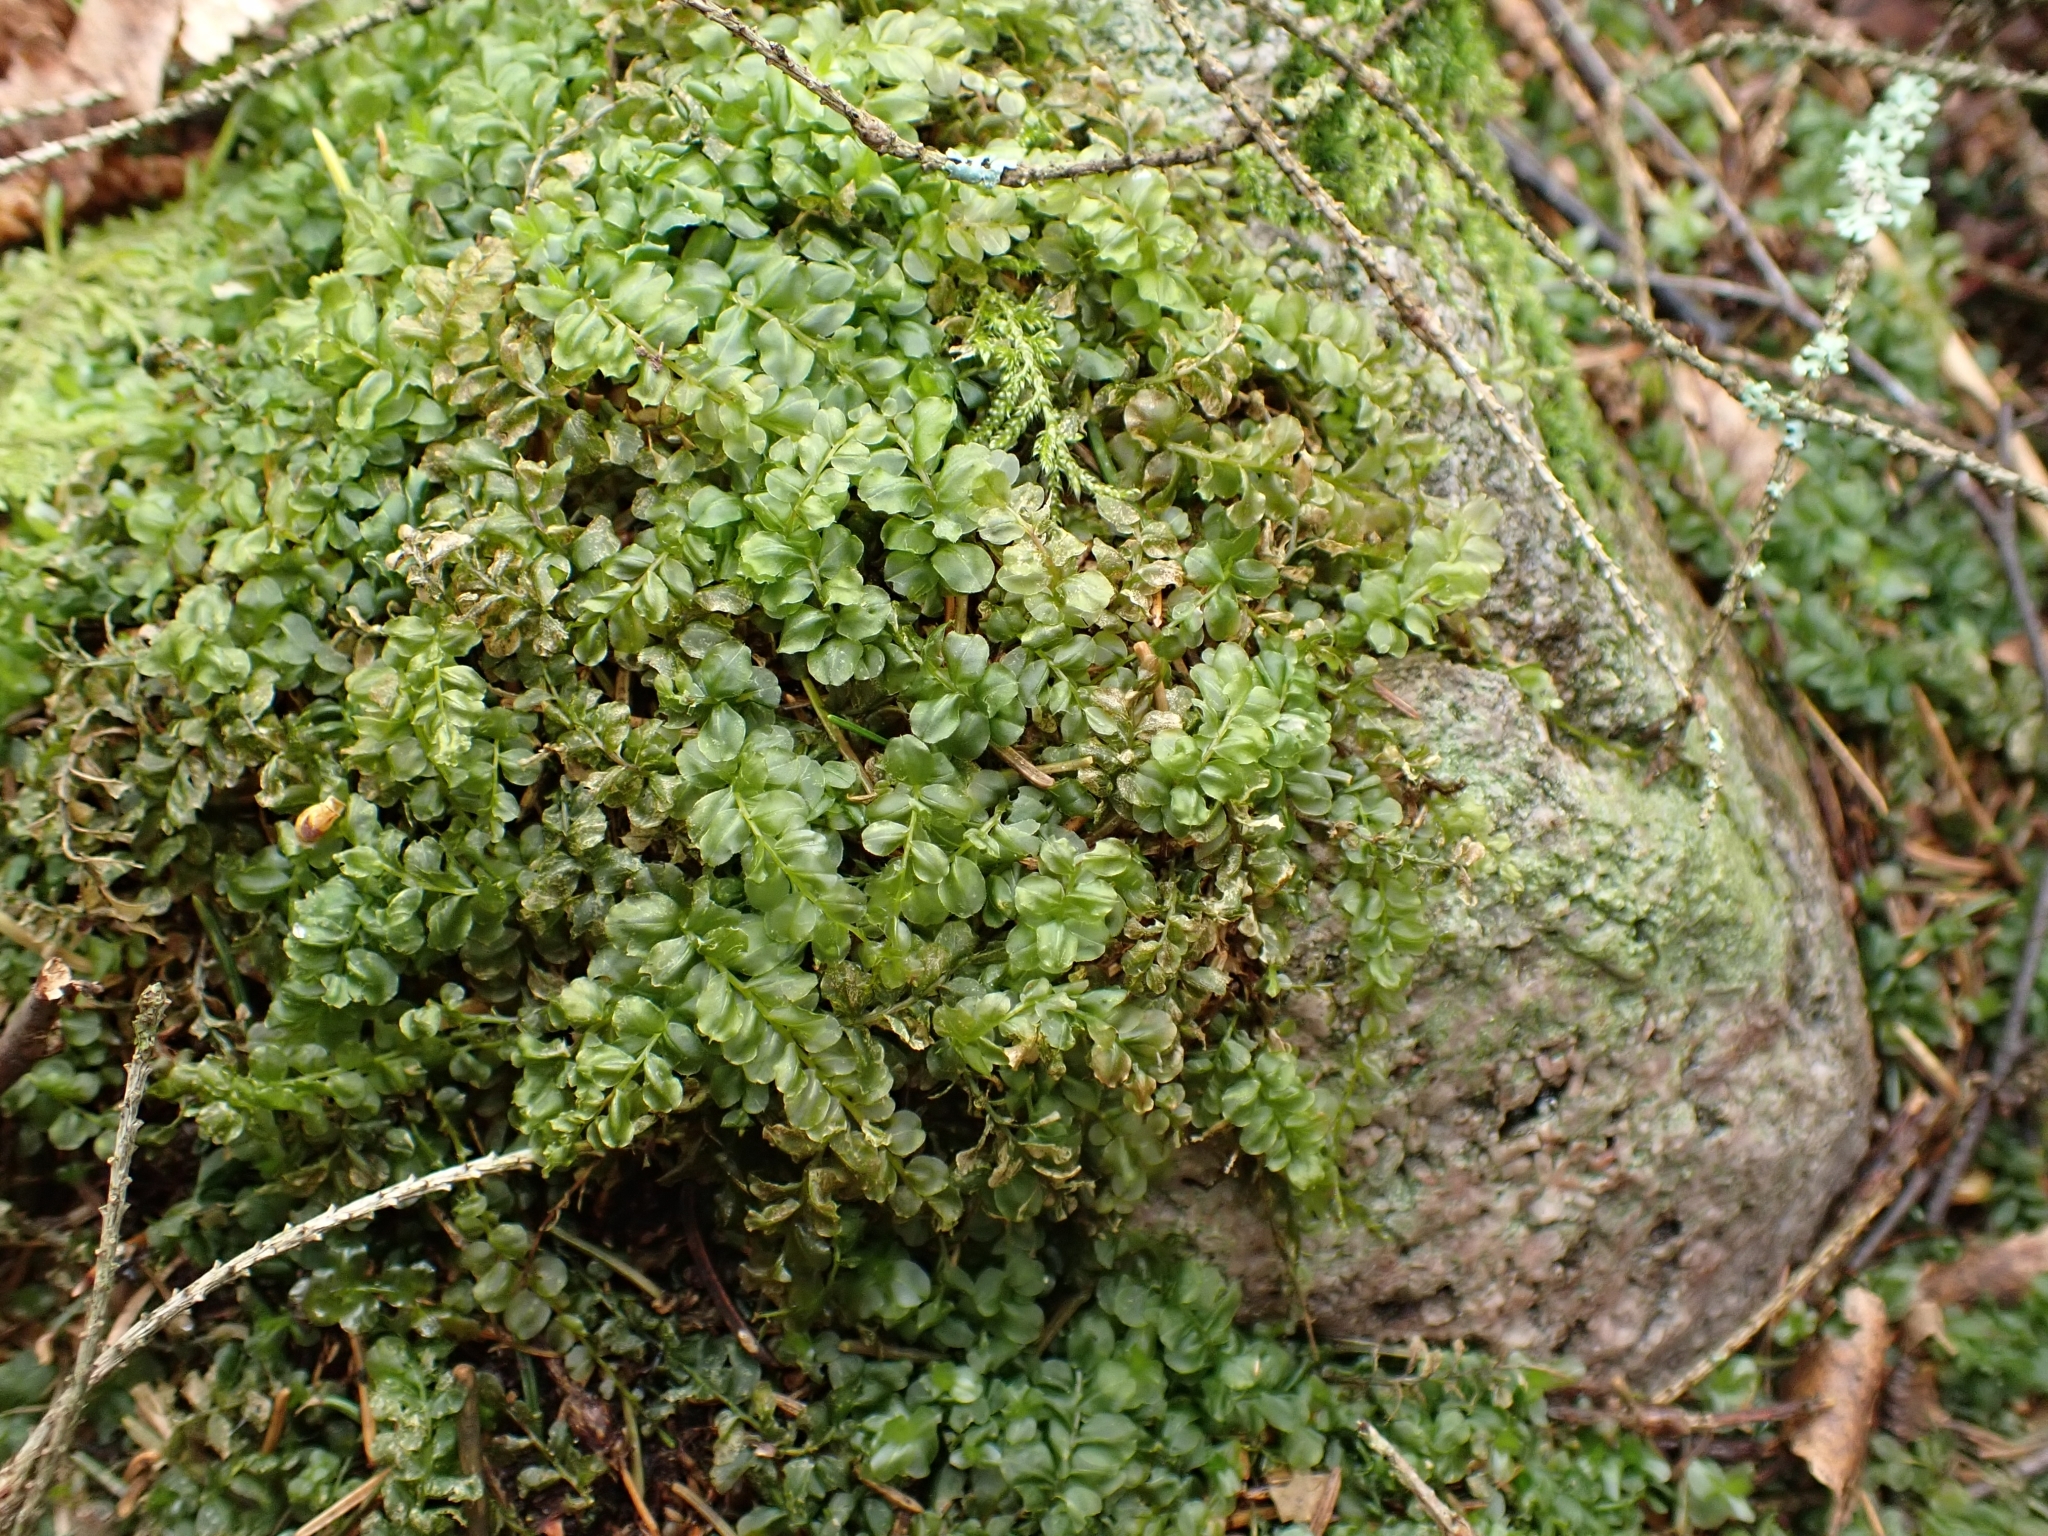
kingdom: Plantae
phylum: Bryophyta
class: Bryopsida
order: Bryales
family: Mniaceae
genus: Plagiomnium
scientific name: Plagiomnium affine
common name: Many-fruited thyme-moss
